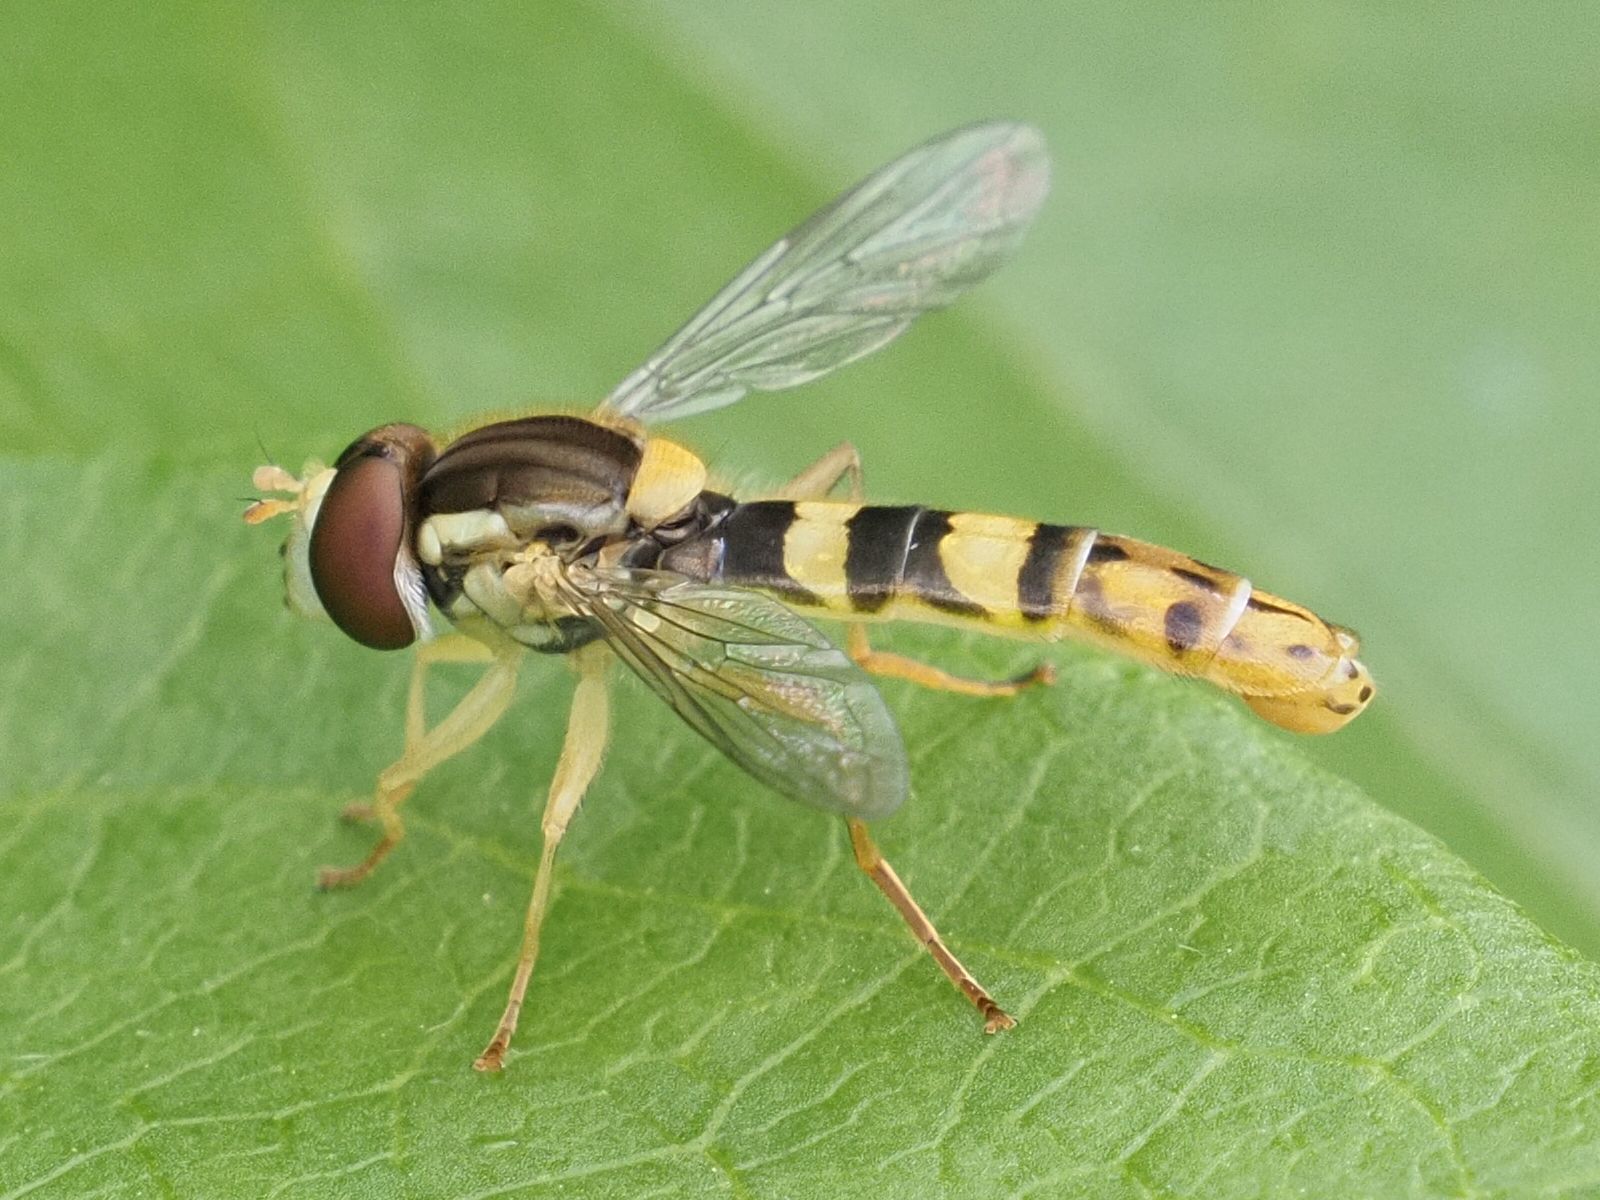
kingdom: Animalia
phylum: Arthropoda
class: Insecta
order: Diptera
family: Syrphidae
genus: Sphaerophoria
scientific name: Sphaerophoria scripta
